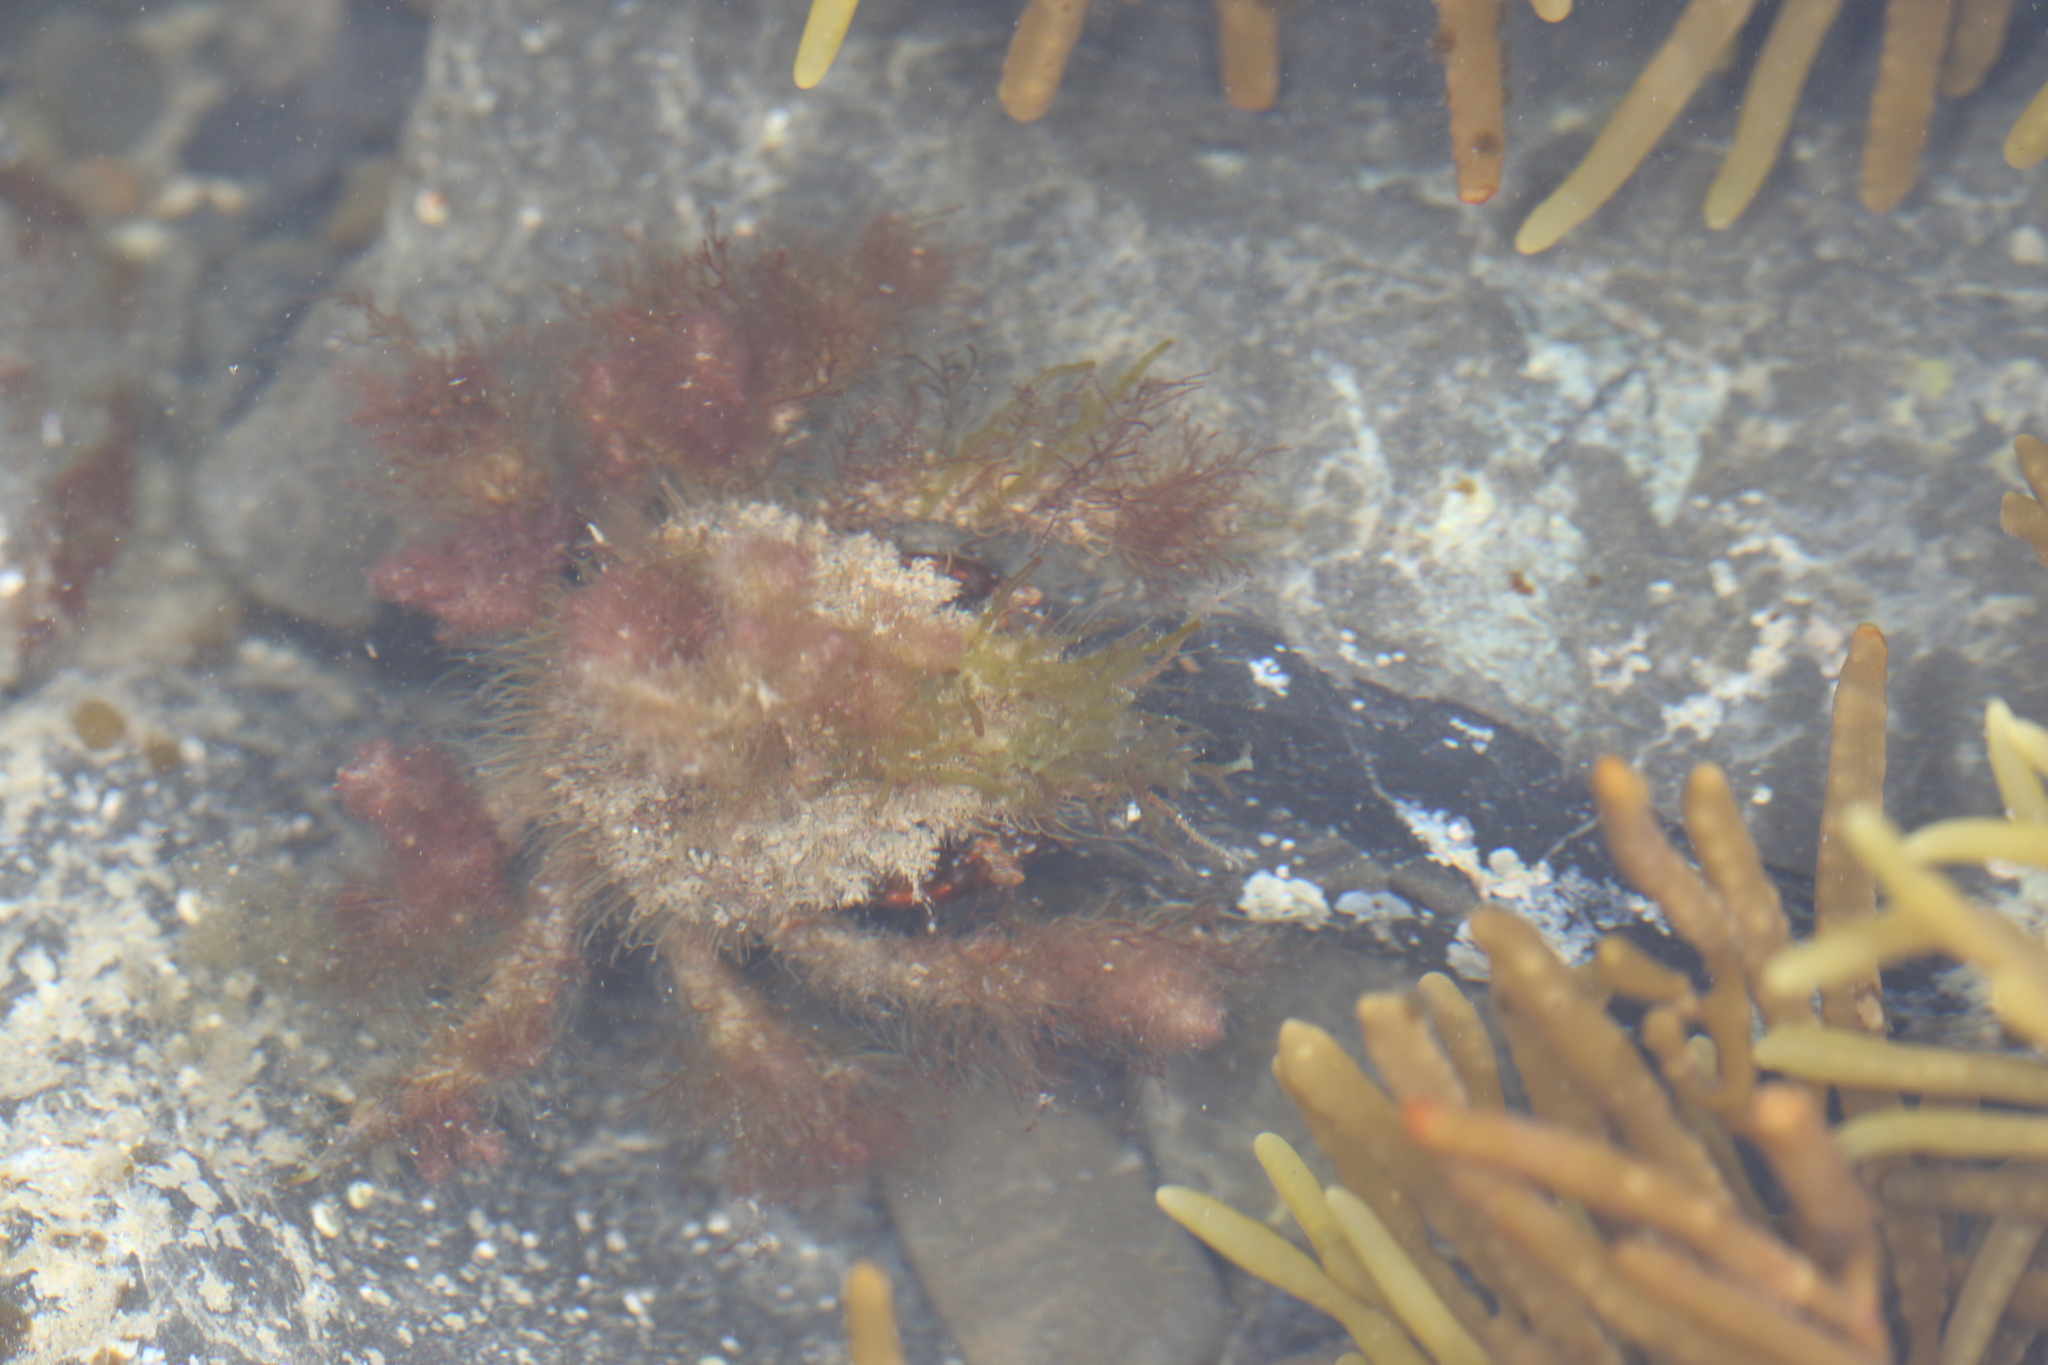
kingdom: Animalia
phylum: Arthropoda
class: Malacostraca
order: Decapoda
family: Majidae
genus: Notomithrax
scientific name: Notomithrax ursus
